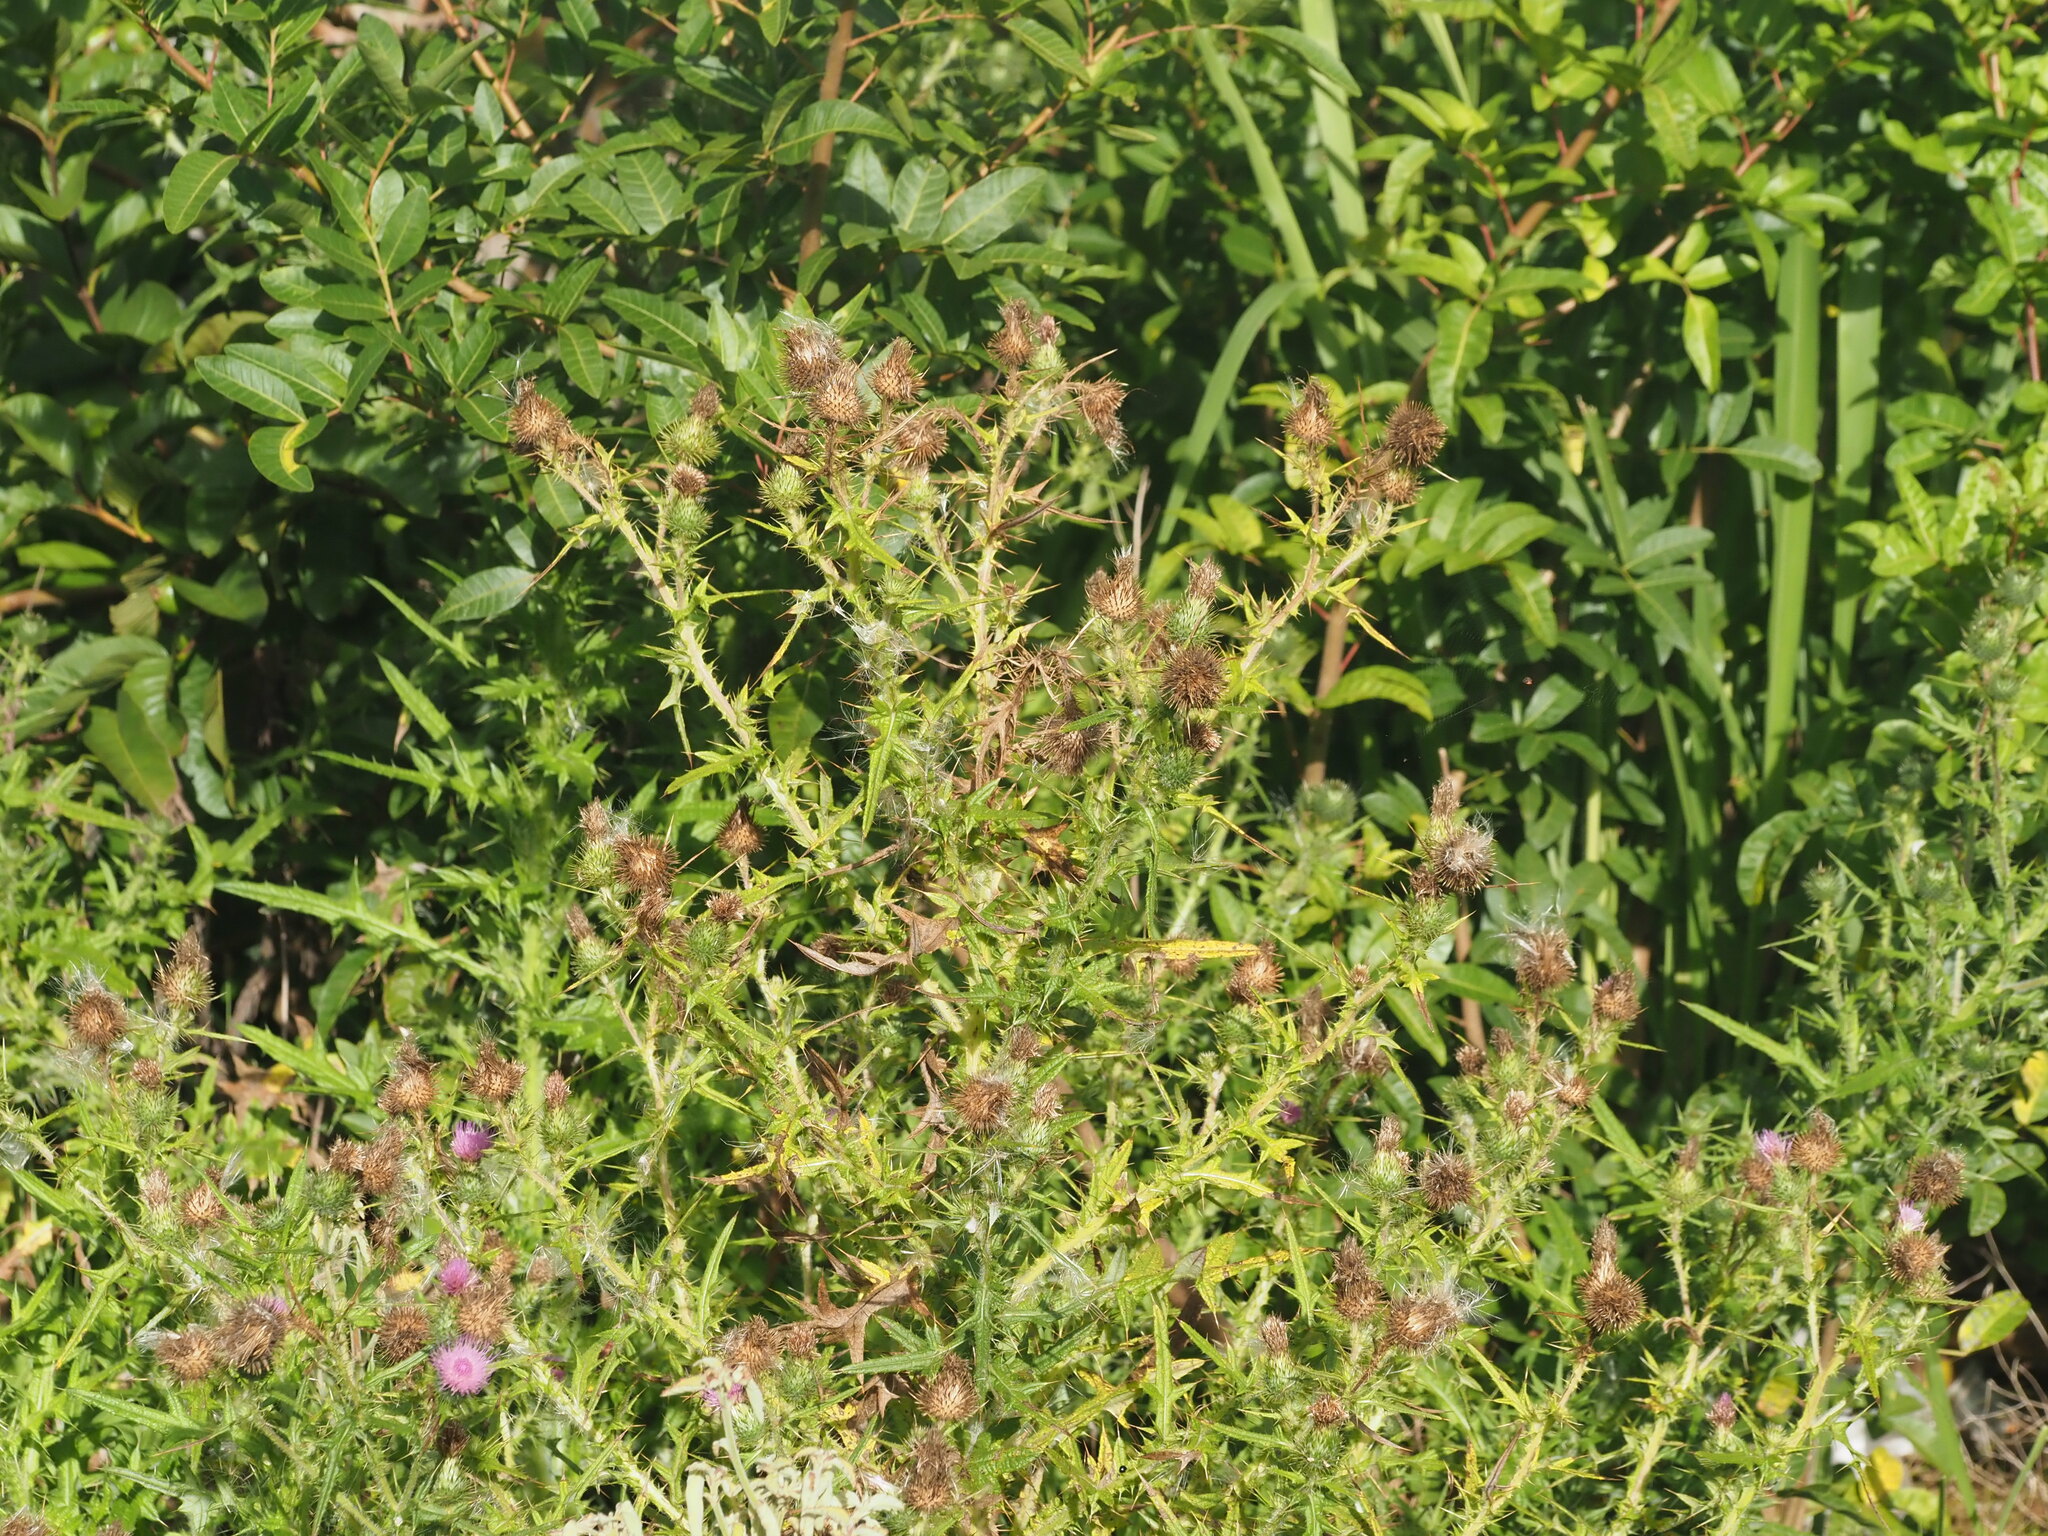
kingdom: Plantae
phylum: Tracheophyta
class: Magnoliopsida
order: Asterales
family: Asteraceae
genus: Cirsium
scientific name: Cirsium vulgare
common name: Bull thistle
